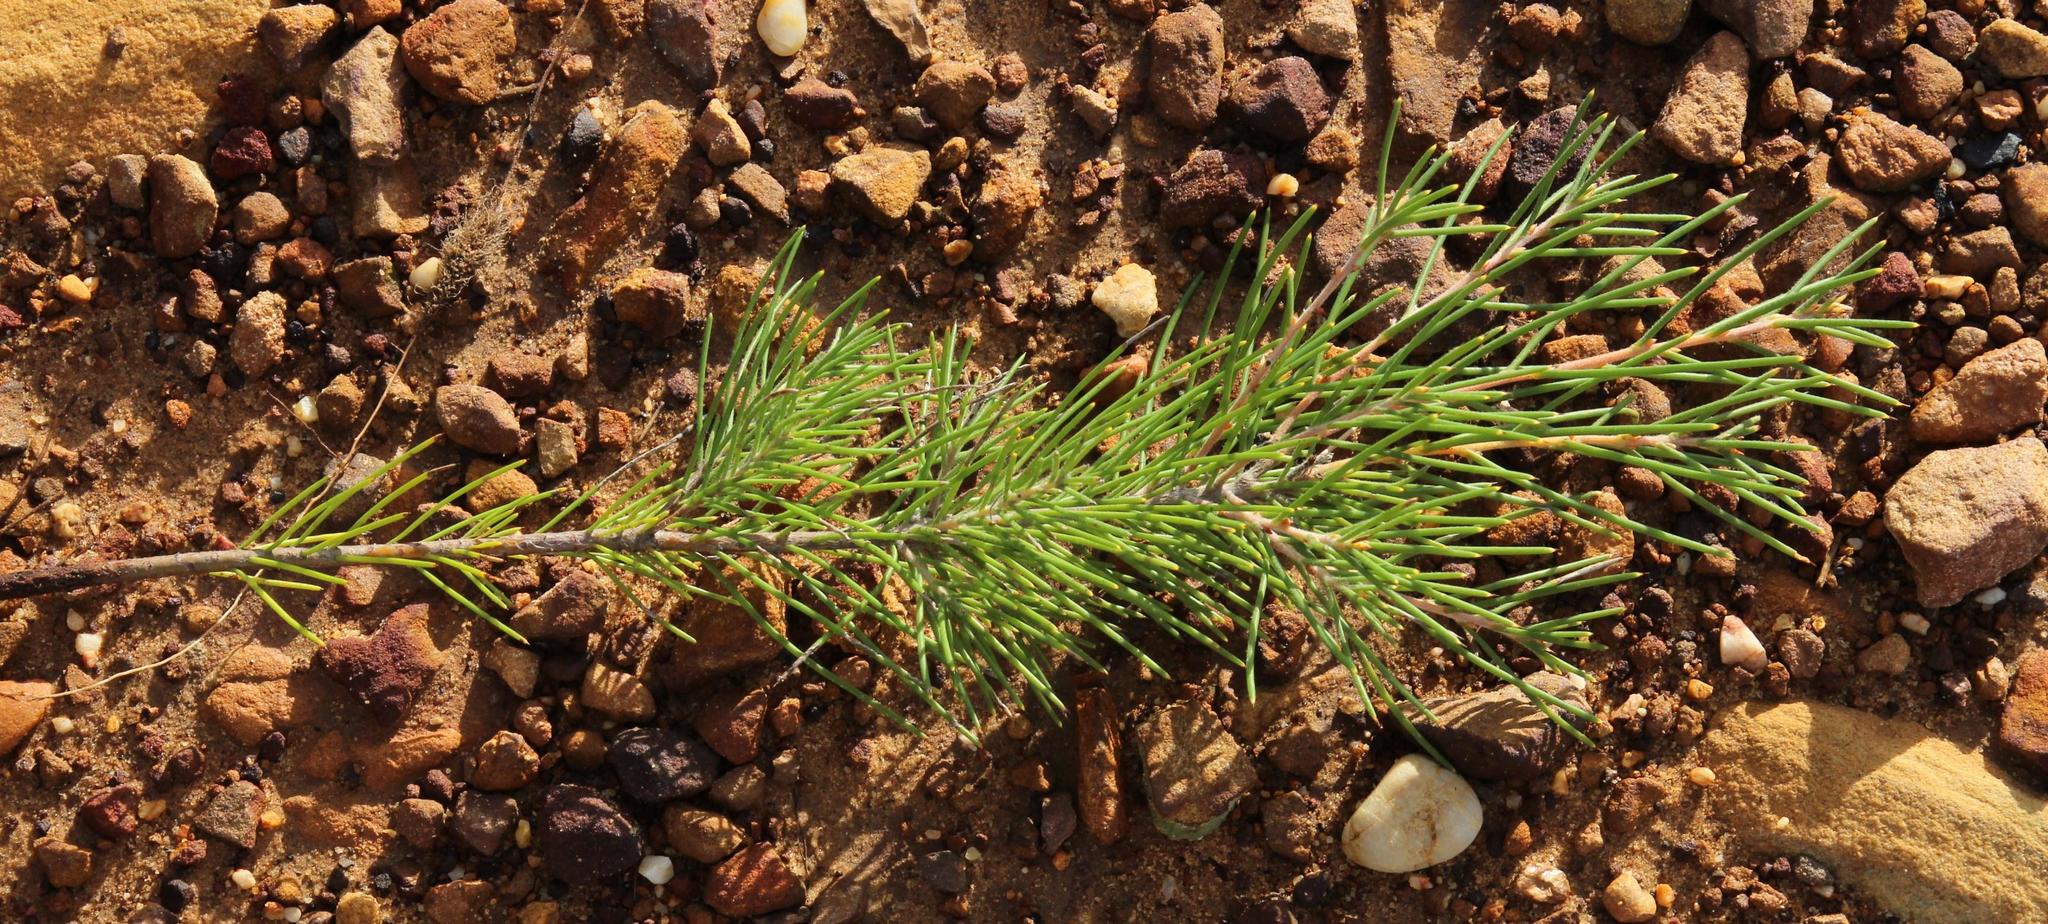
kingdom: Plantae
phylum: Tracheophyta
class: Magnoliopsida
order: Proteales
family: Proteaceae
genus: Hakea
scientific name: Hakea gibbosa
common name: Rock hakea
